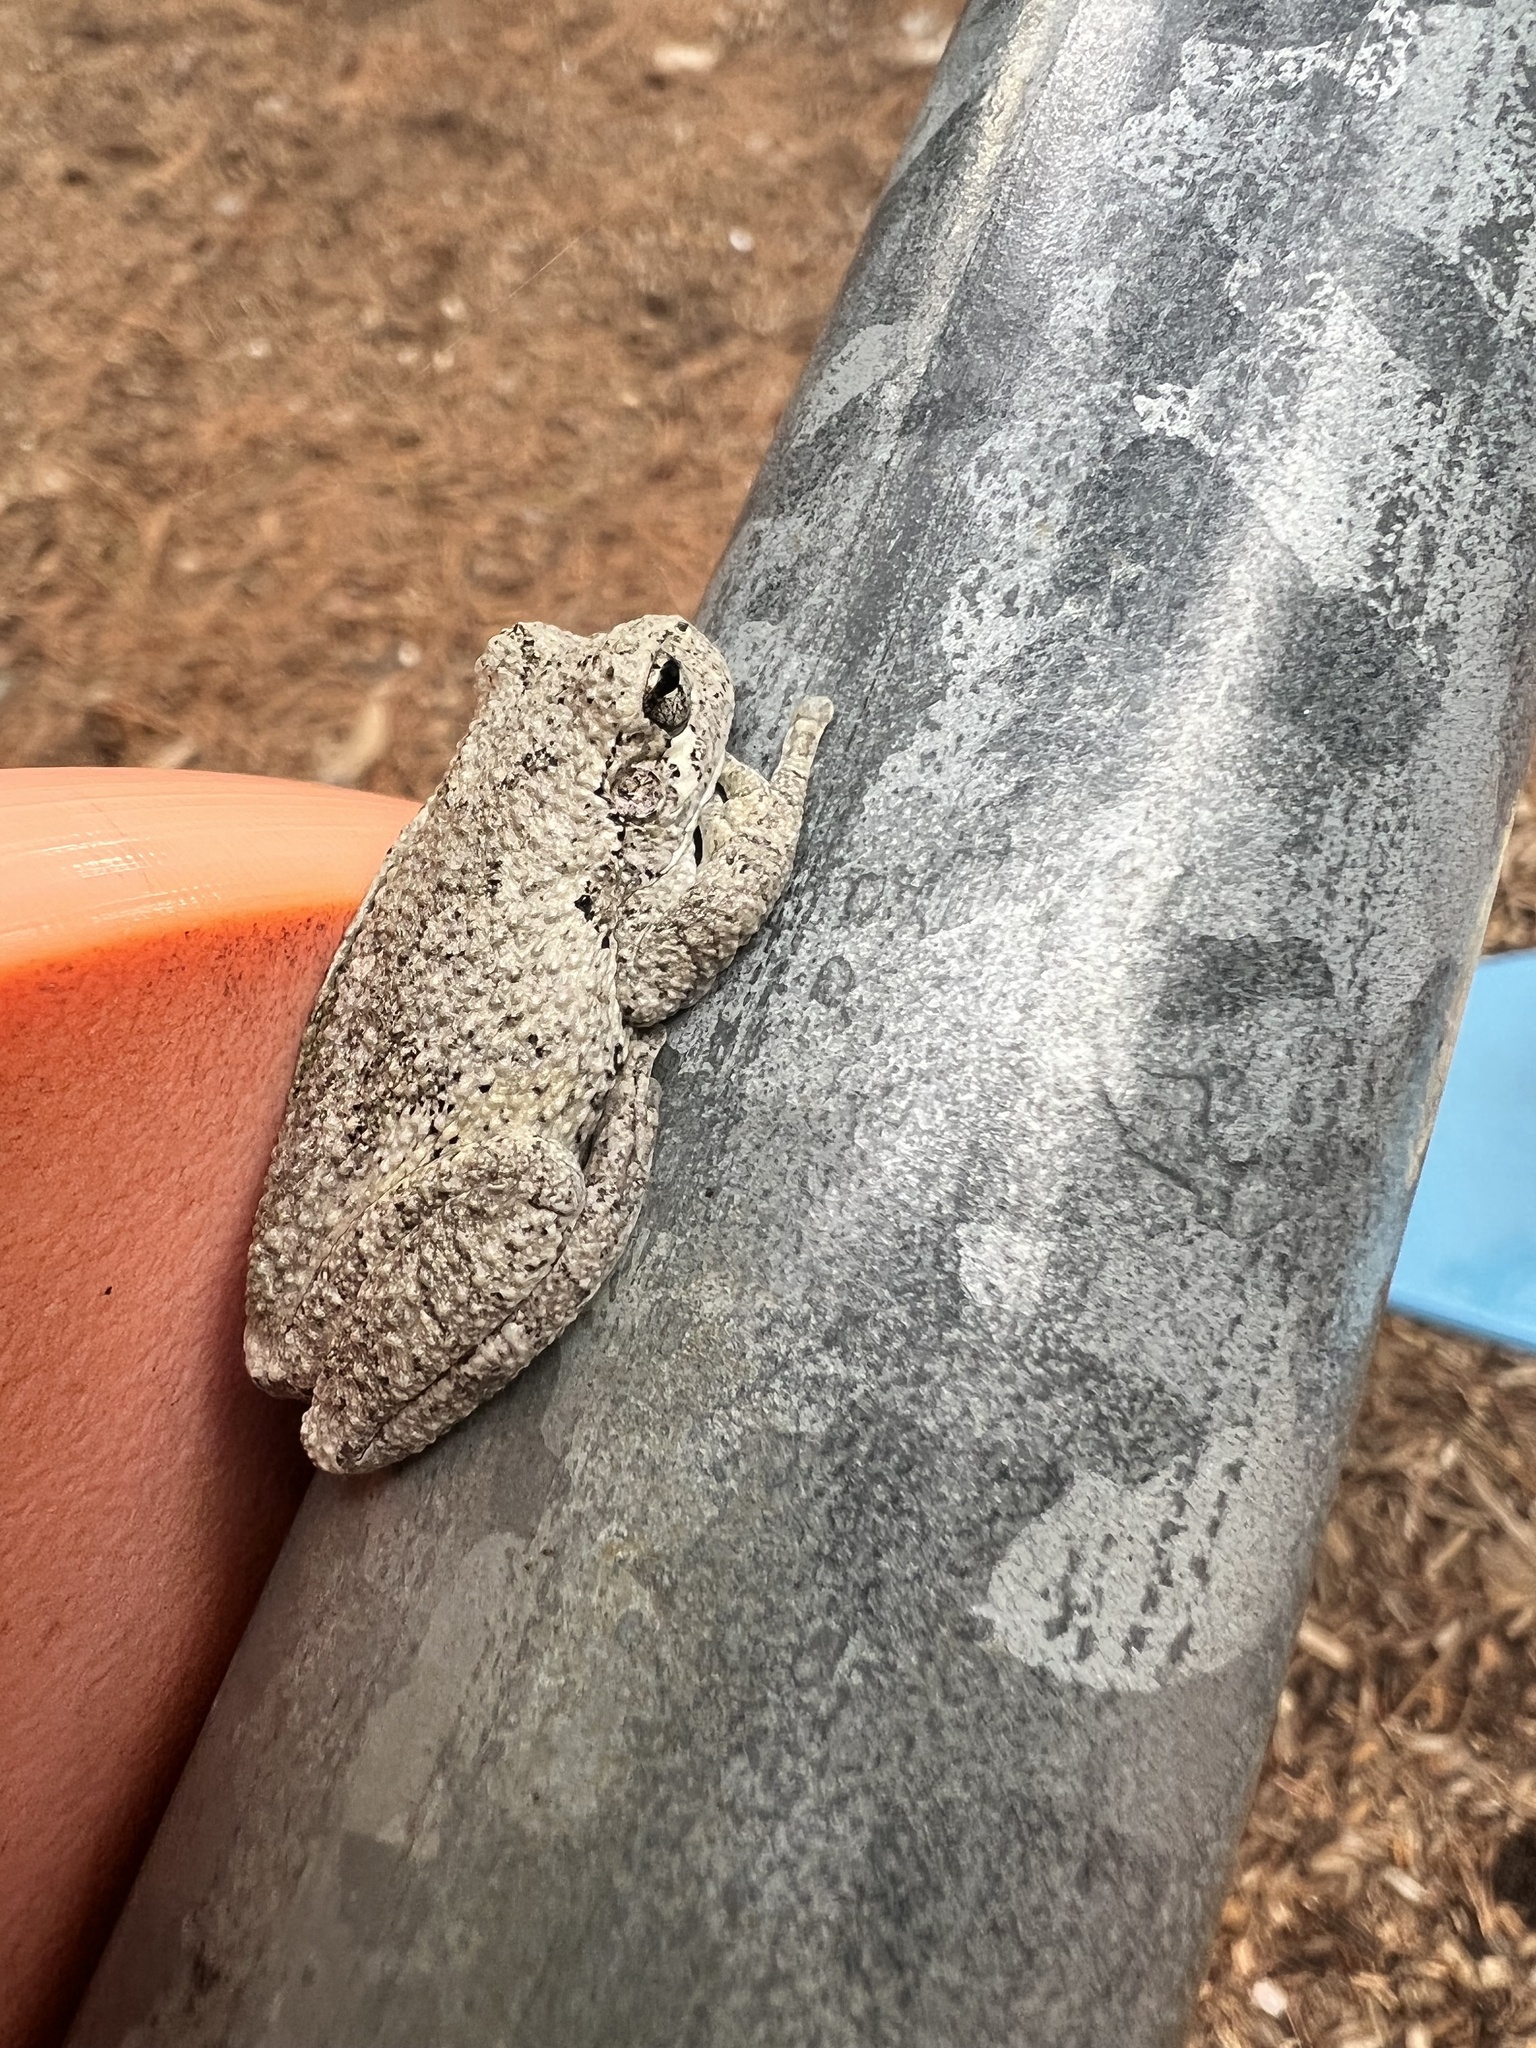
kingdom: Animalia
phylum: Chordata
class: Amphibia
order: Anura
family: Hylidae
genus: Dryophytes
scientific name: Dryophytes chrysoscelis
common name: Cope's gray treefrog
